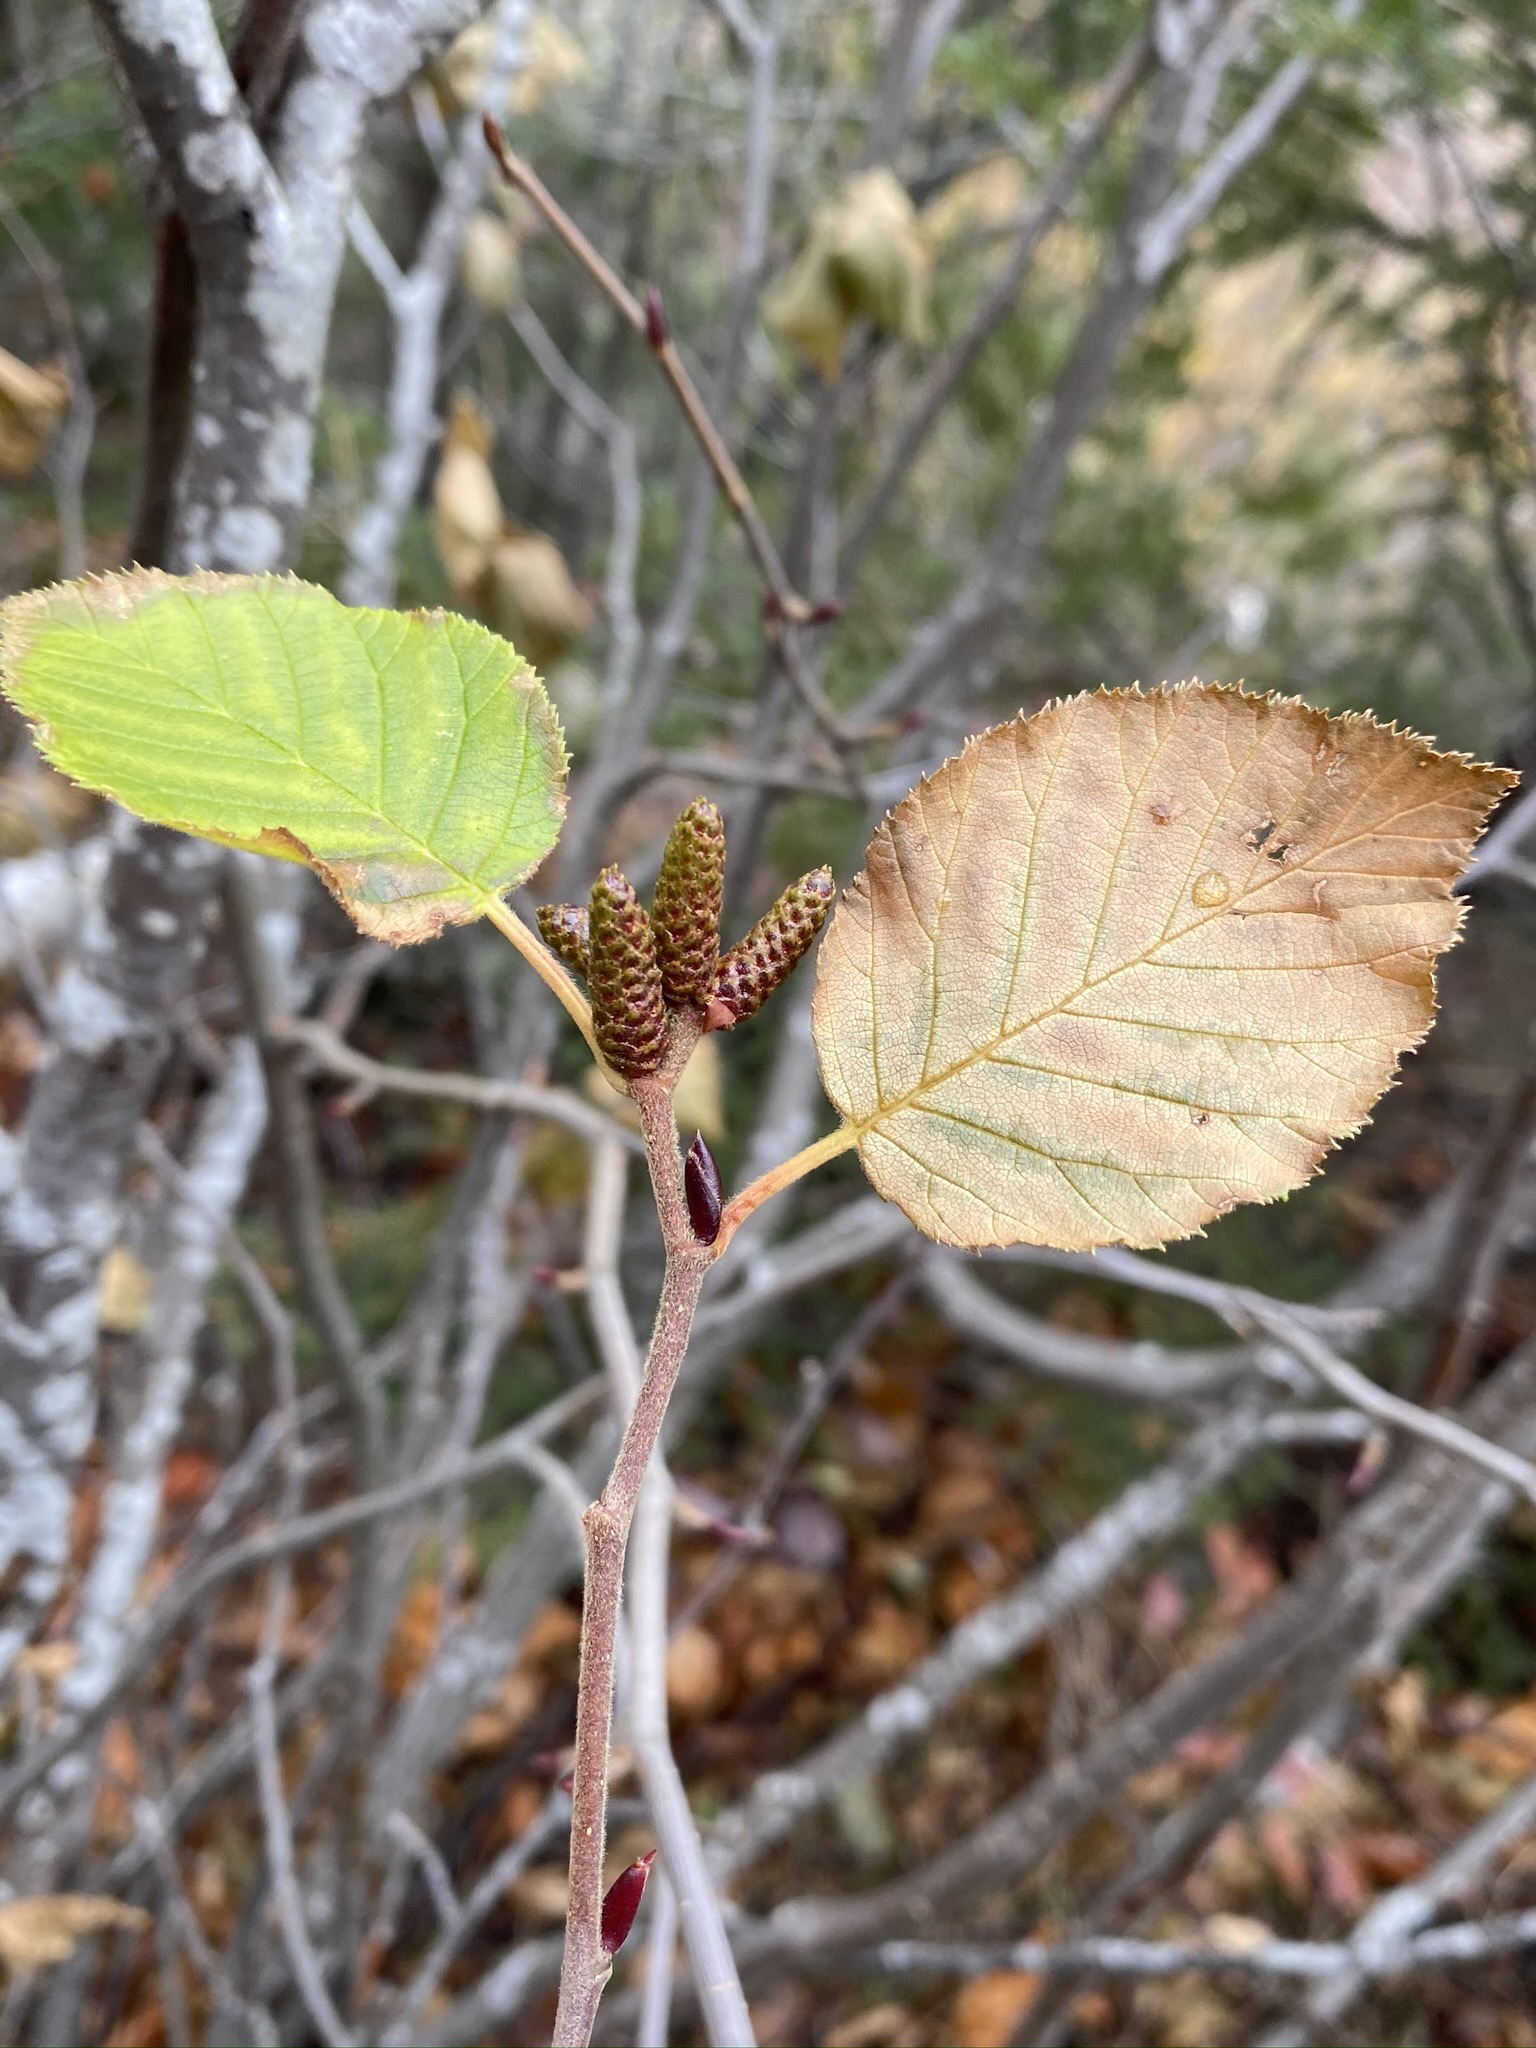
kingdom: Plantae
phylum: Tracheophyta
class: Magnoliopsida
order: Fagales
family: Betulaceae
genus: Alnus
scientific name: Alnus alnobetula
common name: Green alder
